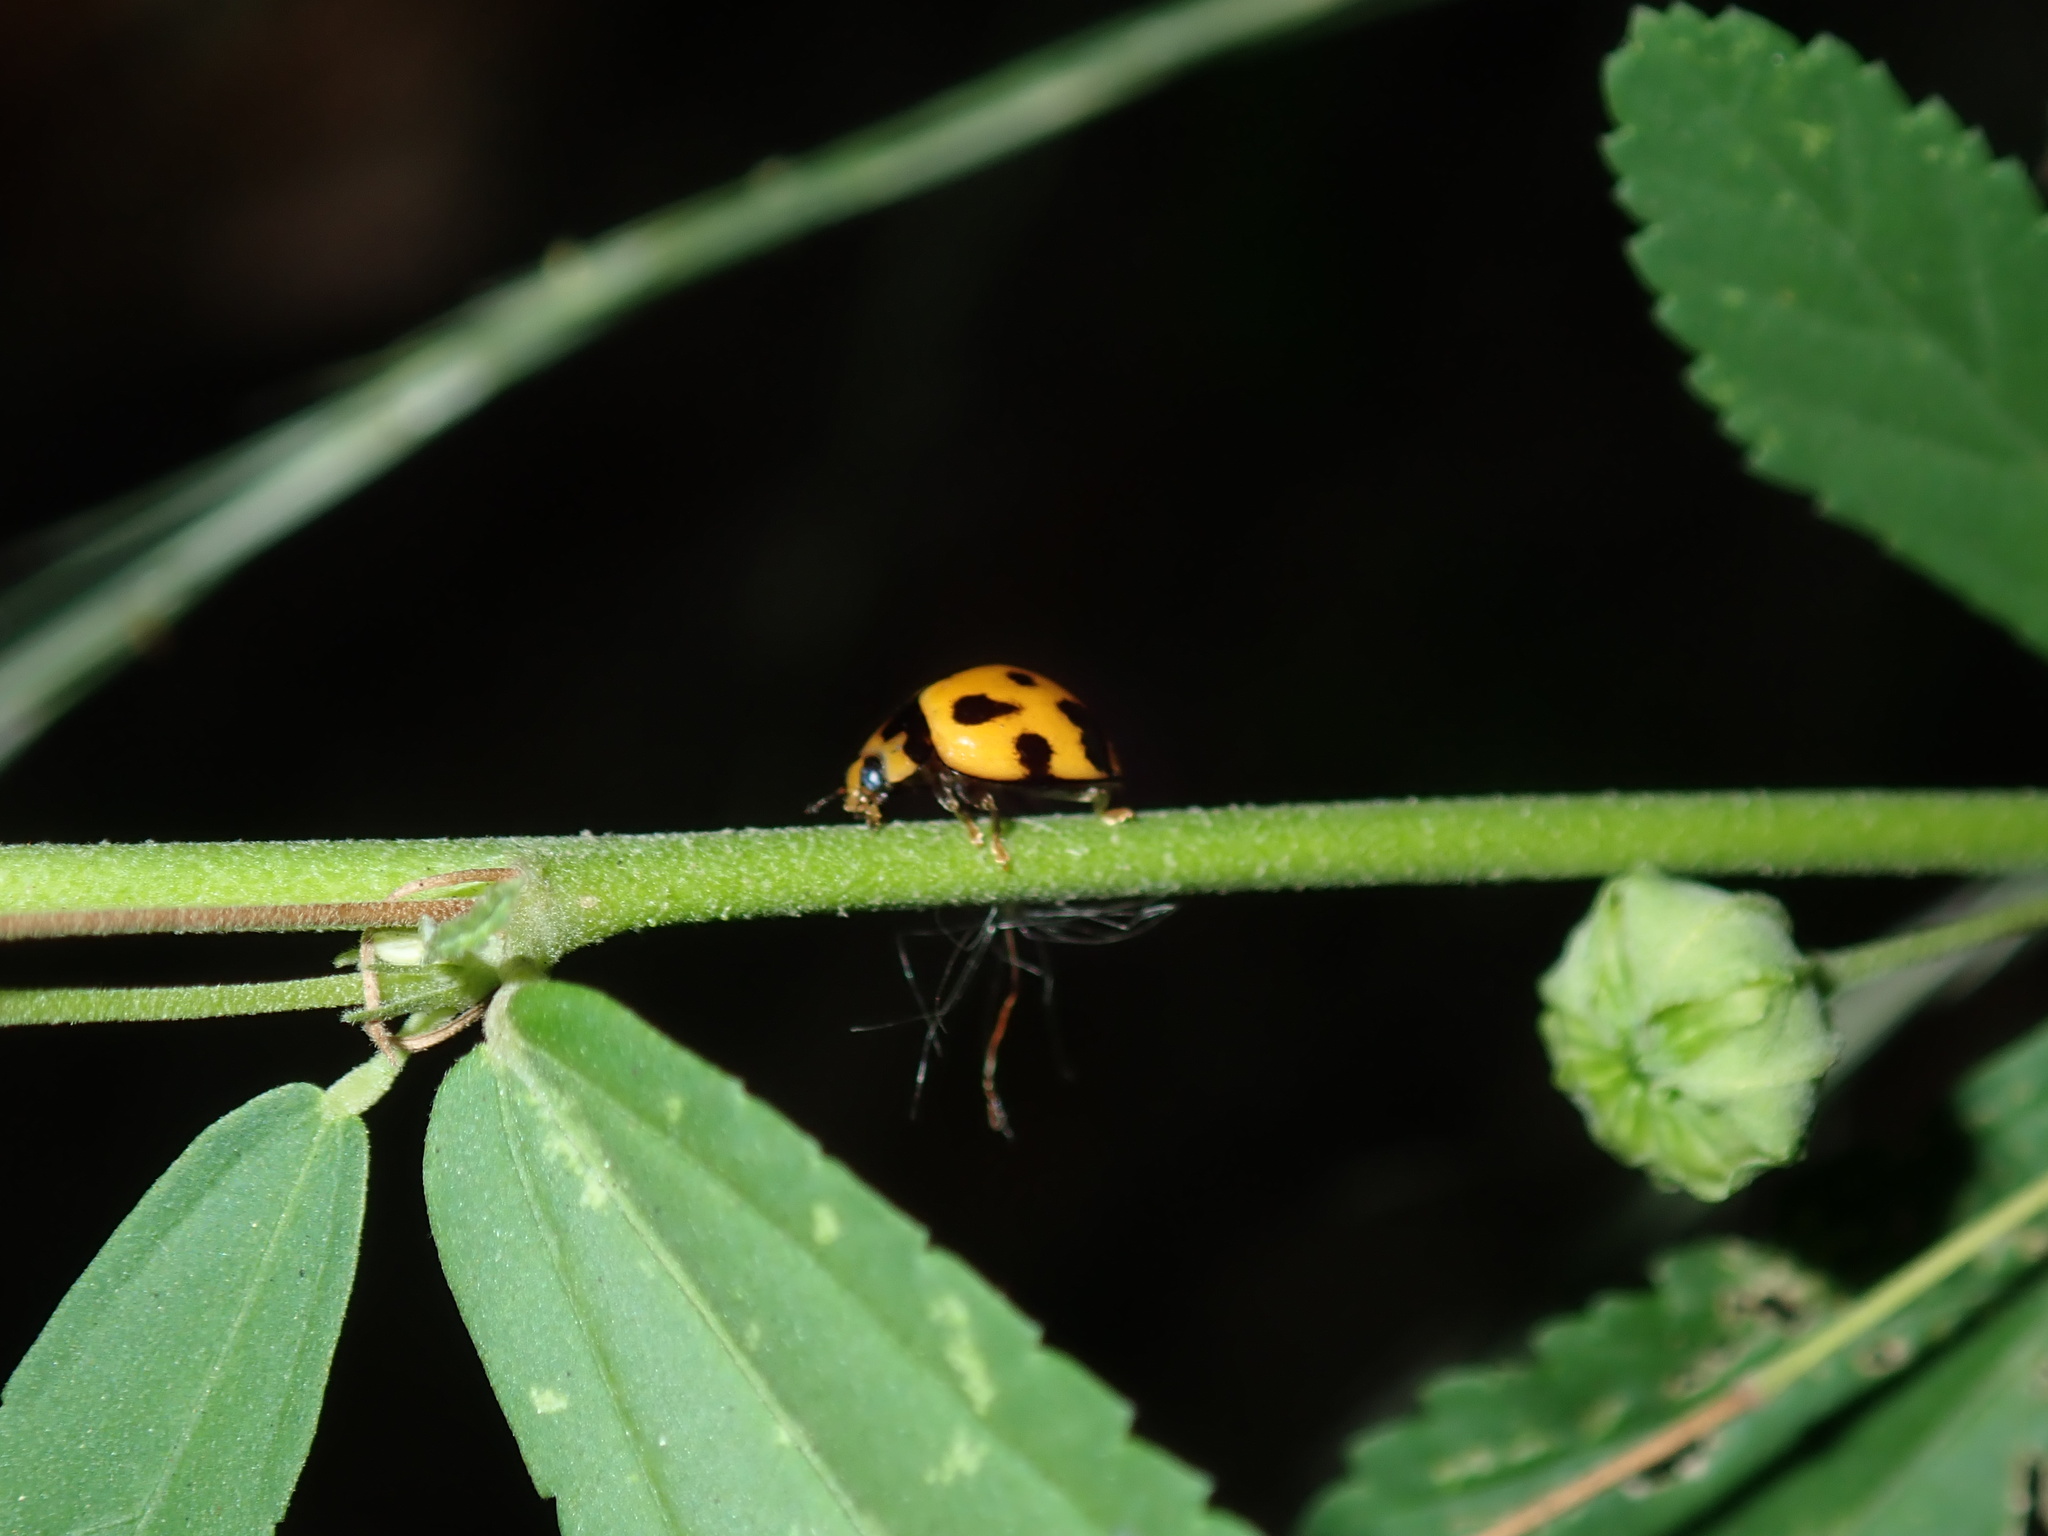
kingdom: Animalia
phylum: Arthropoda
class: Insecta
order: Coleoptera
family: Coccinellidae
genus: Coelophora
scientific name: Coelophora inaequalis
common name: Common australian lady beetle
